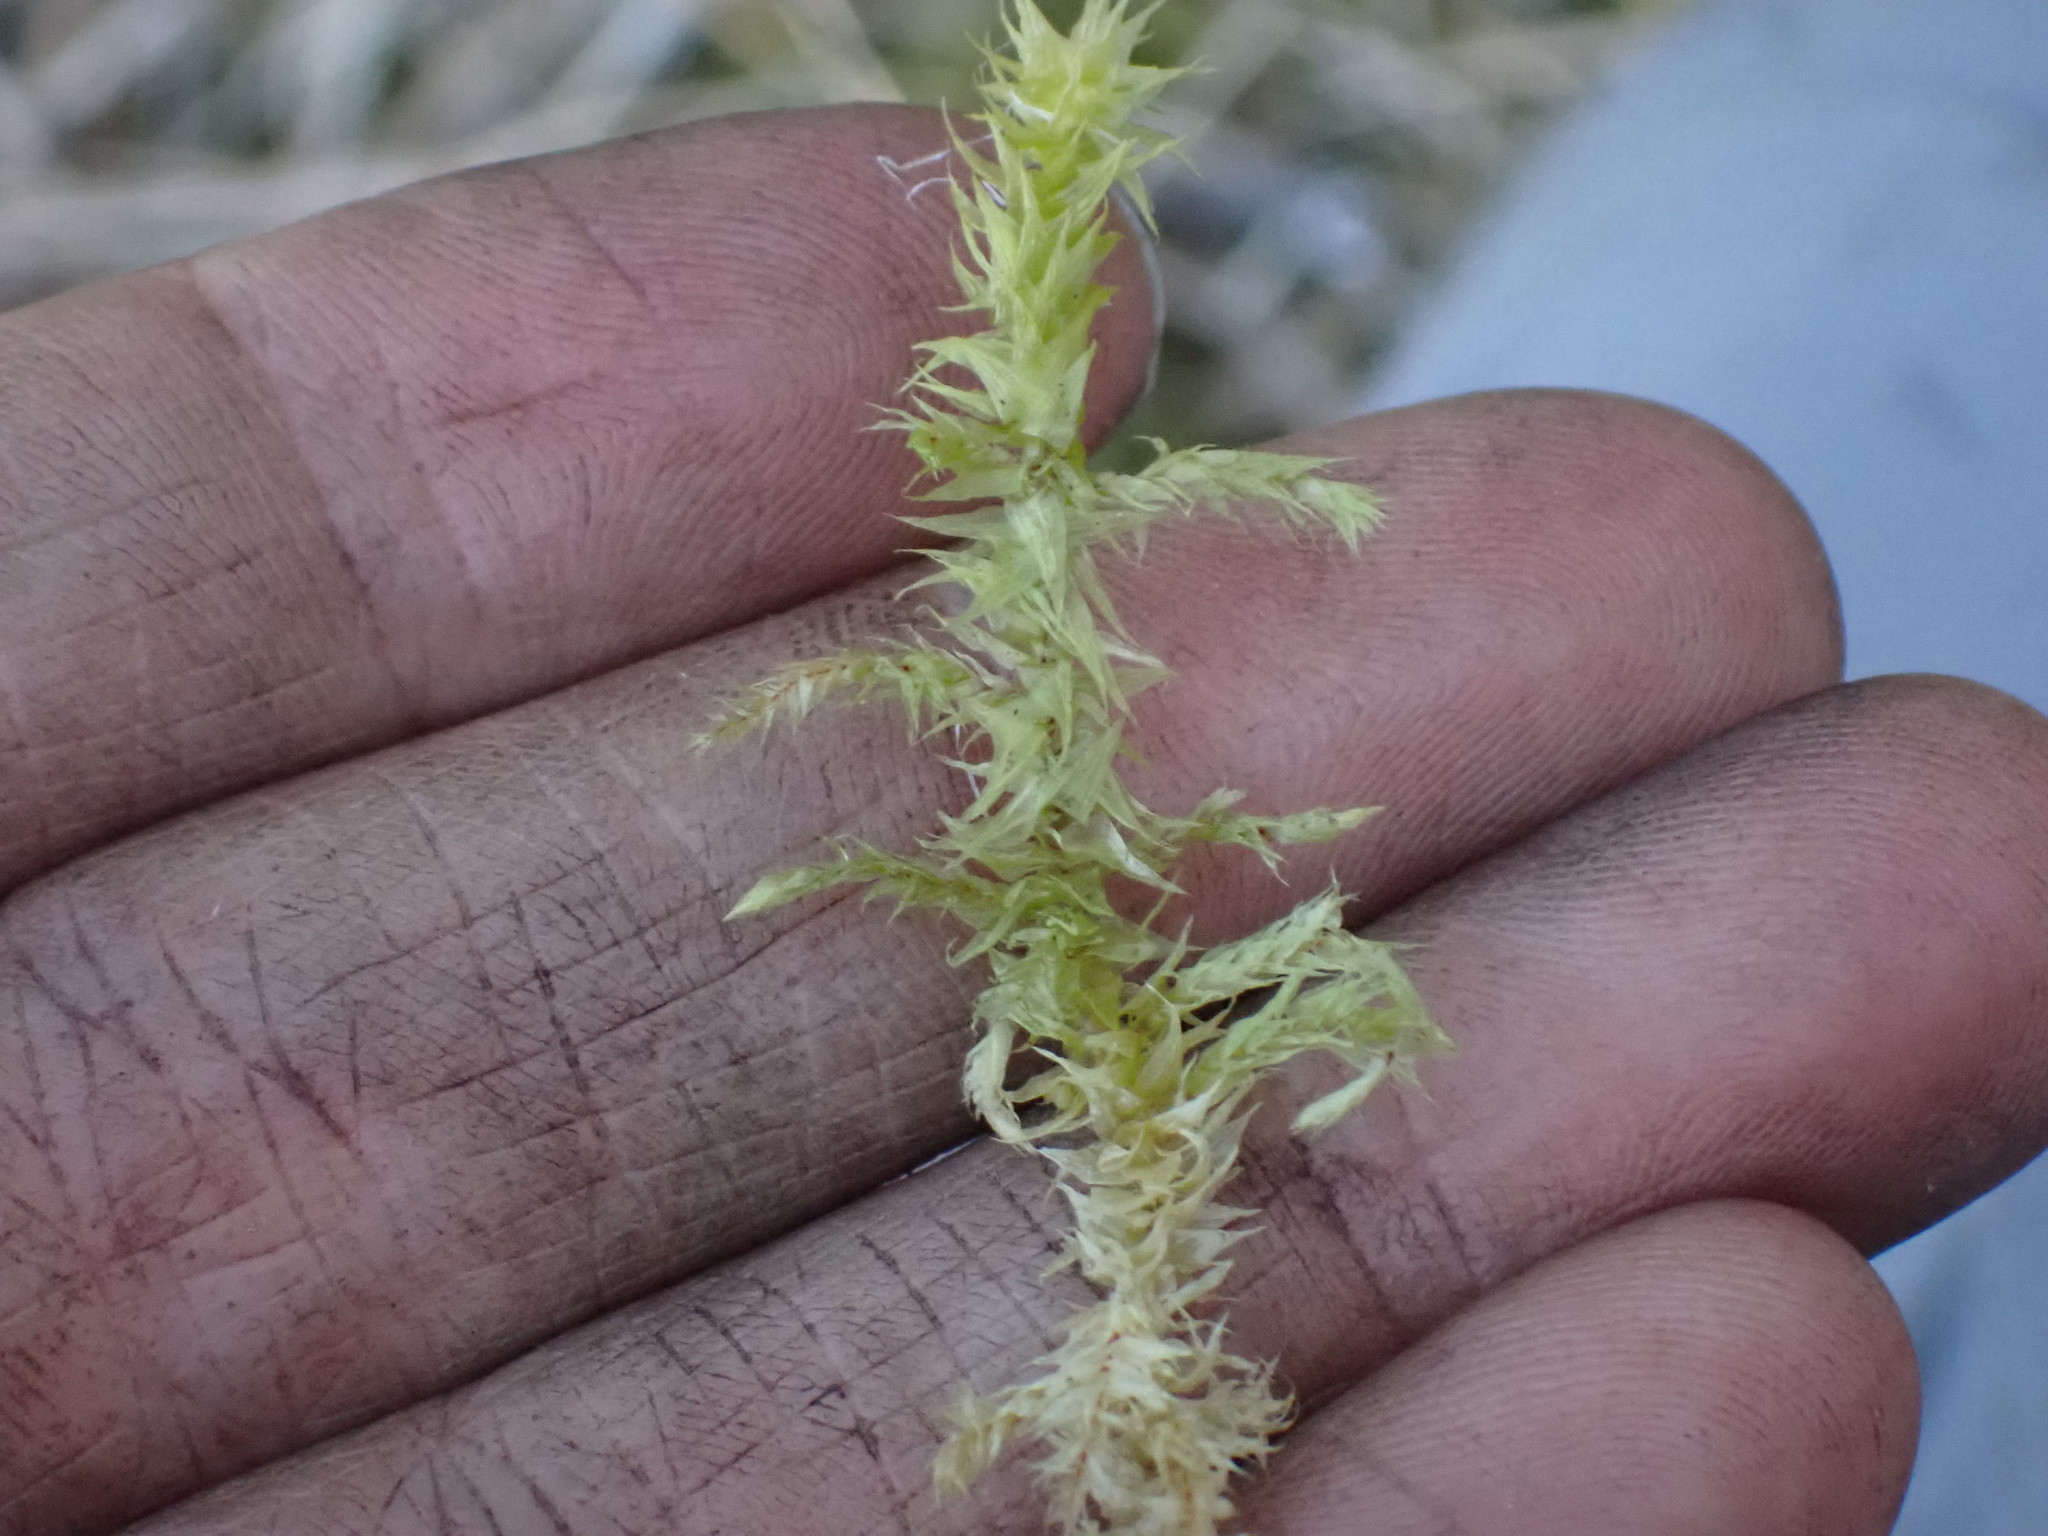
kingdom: Plantae
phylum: Bryophyta
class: Bryopsida
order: Hypnales
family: Hylocomiaceae
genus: Hylocomiadelphus
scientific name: Hylocomiadelphus triquetrus
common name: Rough goose neck moss
